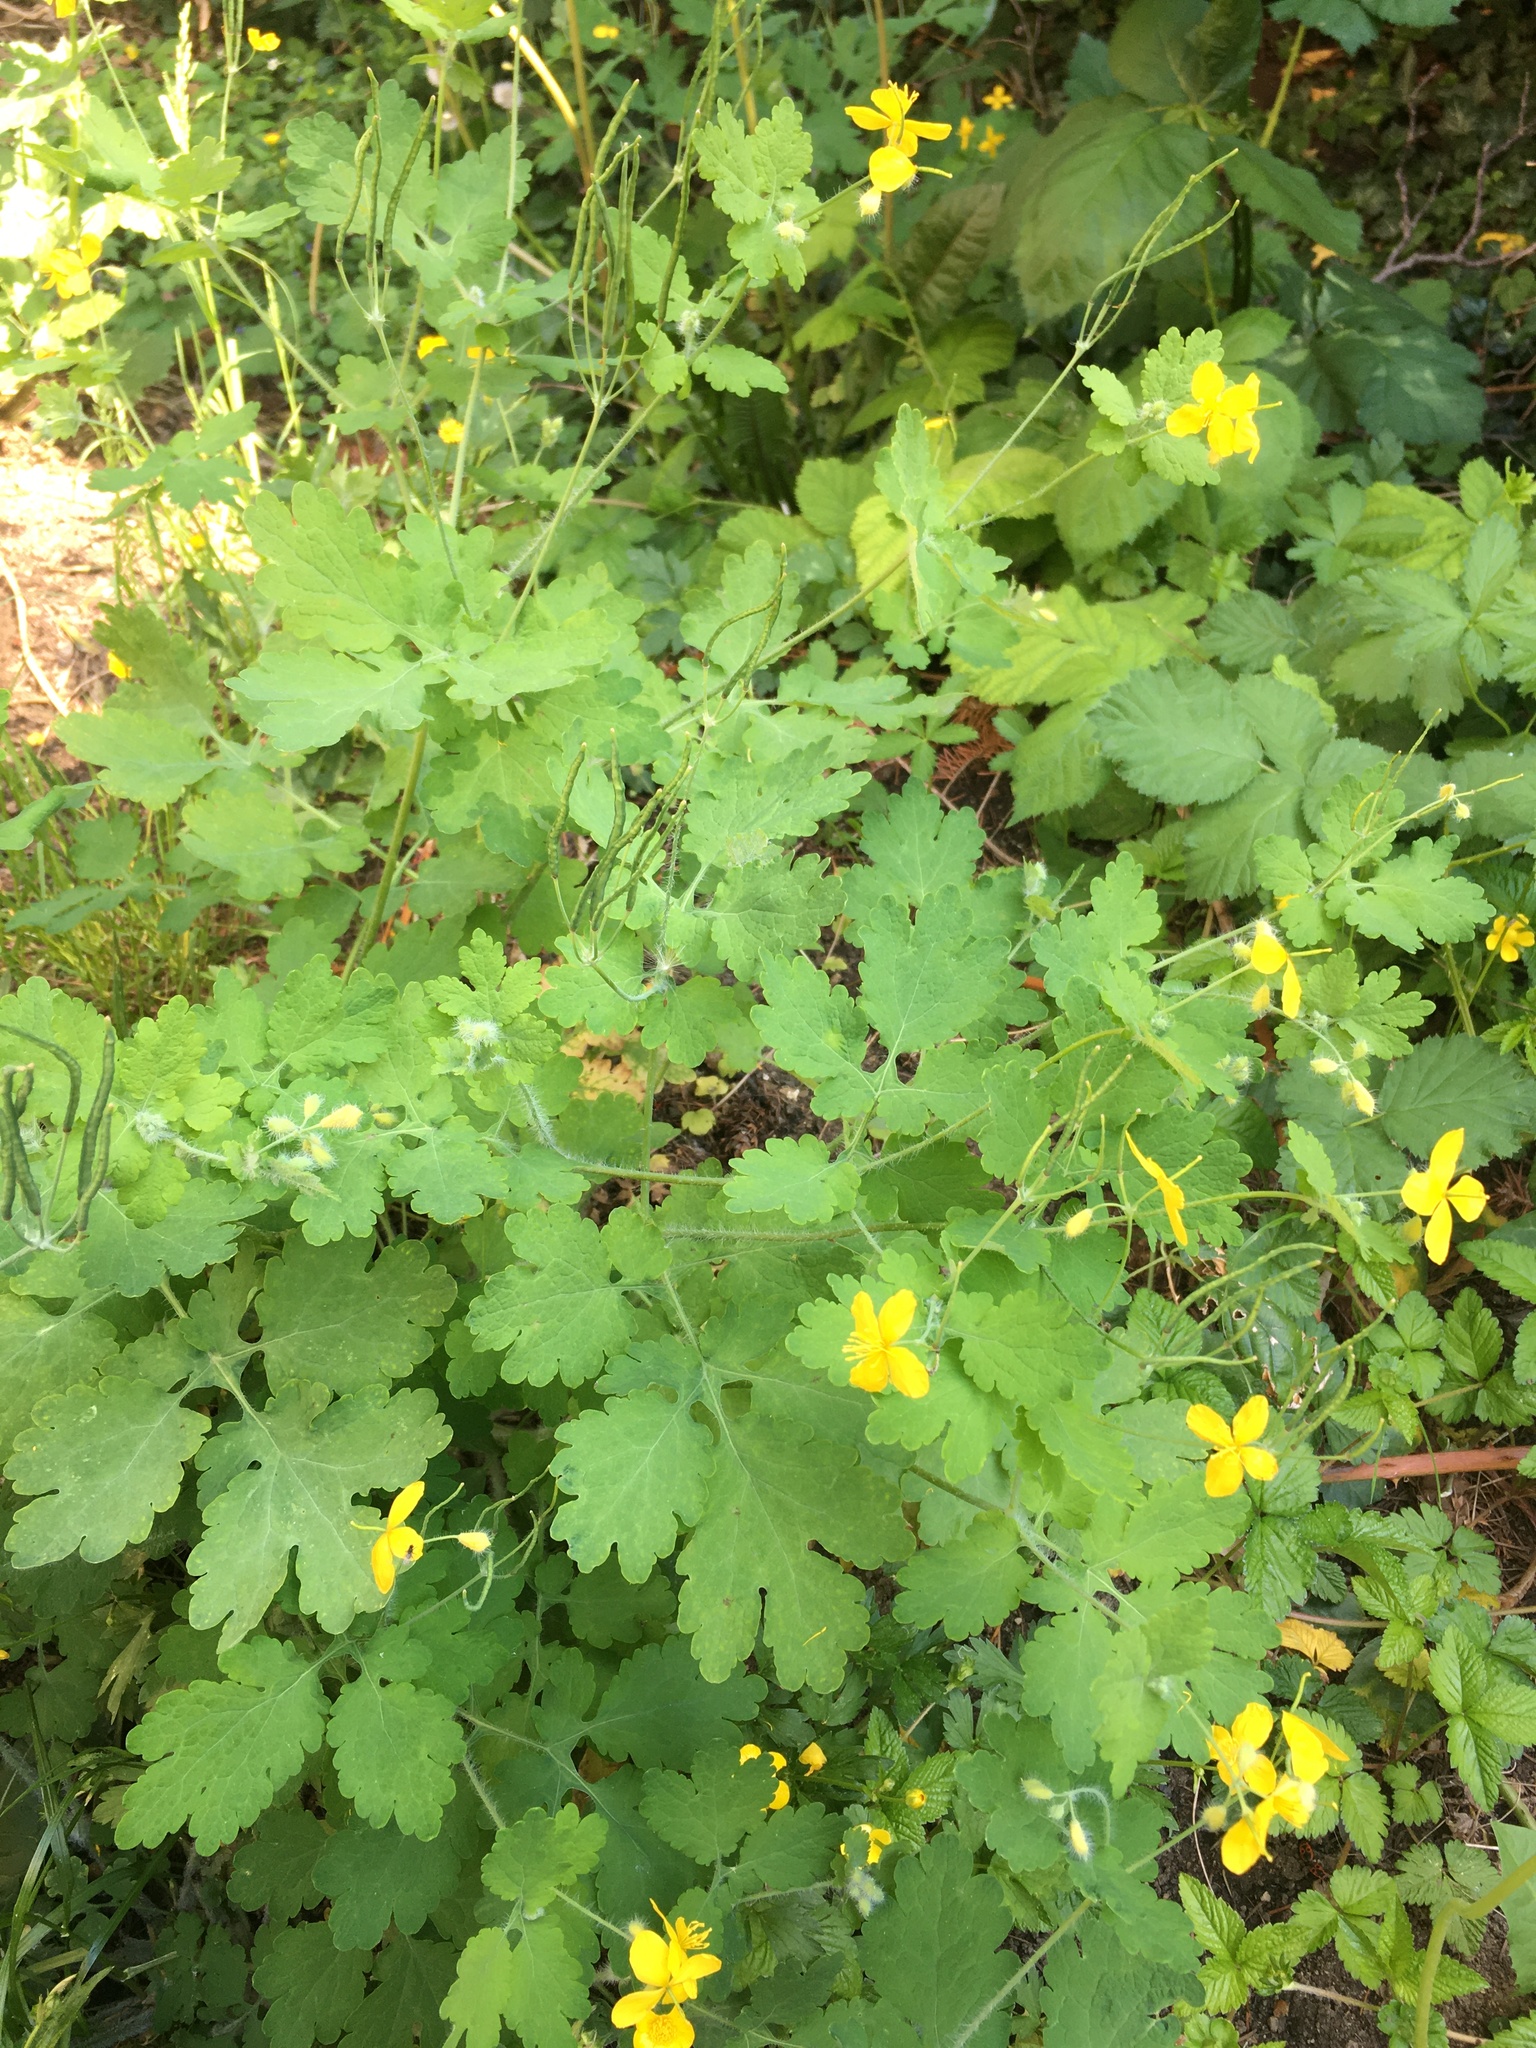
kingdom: Plantae
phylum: Tracheophyta
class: Magnoliopsida
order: Ranunculales
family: Papaveraceae
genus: Chelidonium
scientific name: Chelidonium majus
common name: Greater celandine
